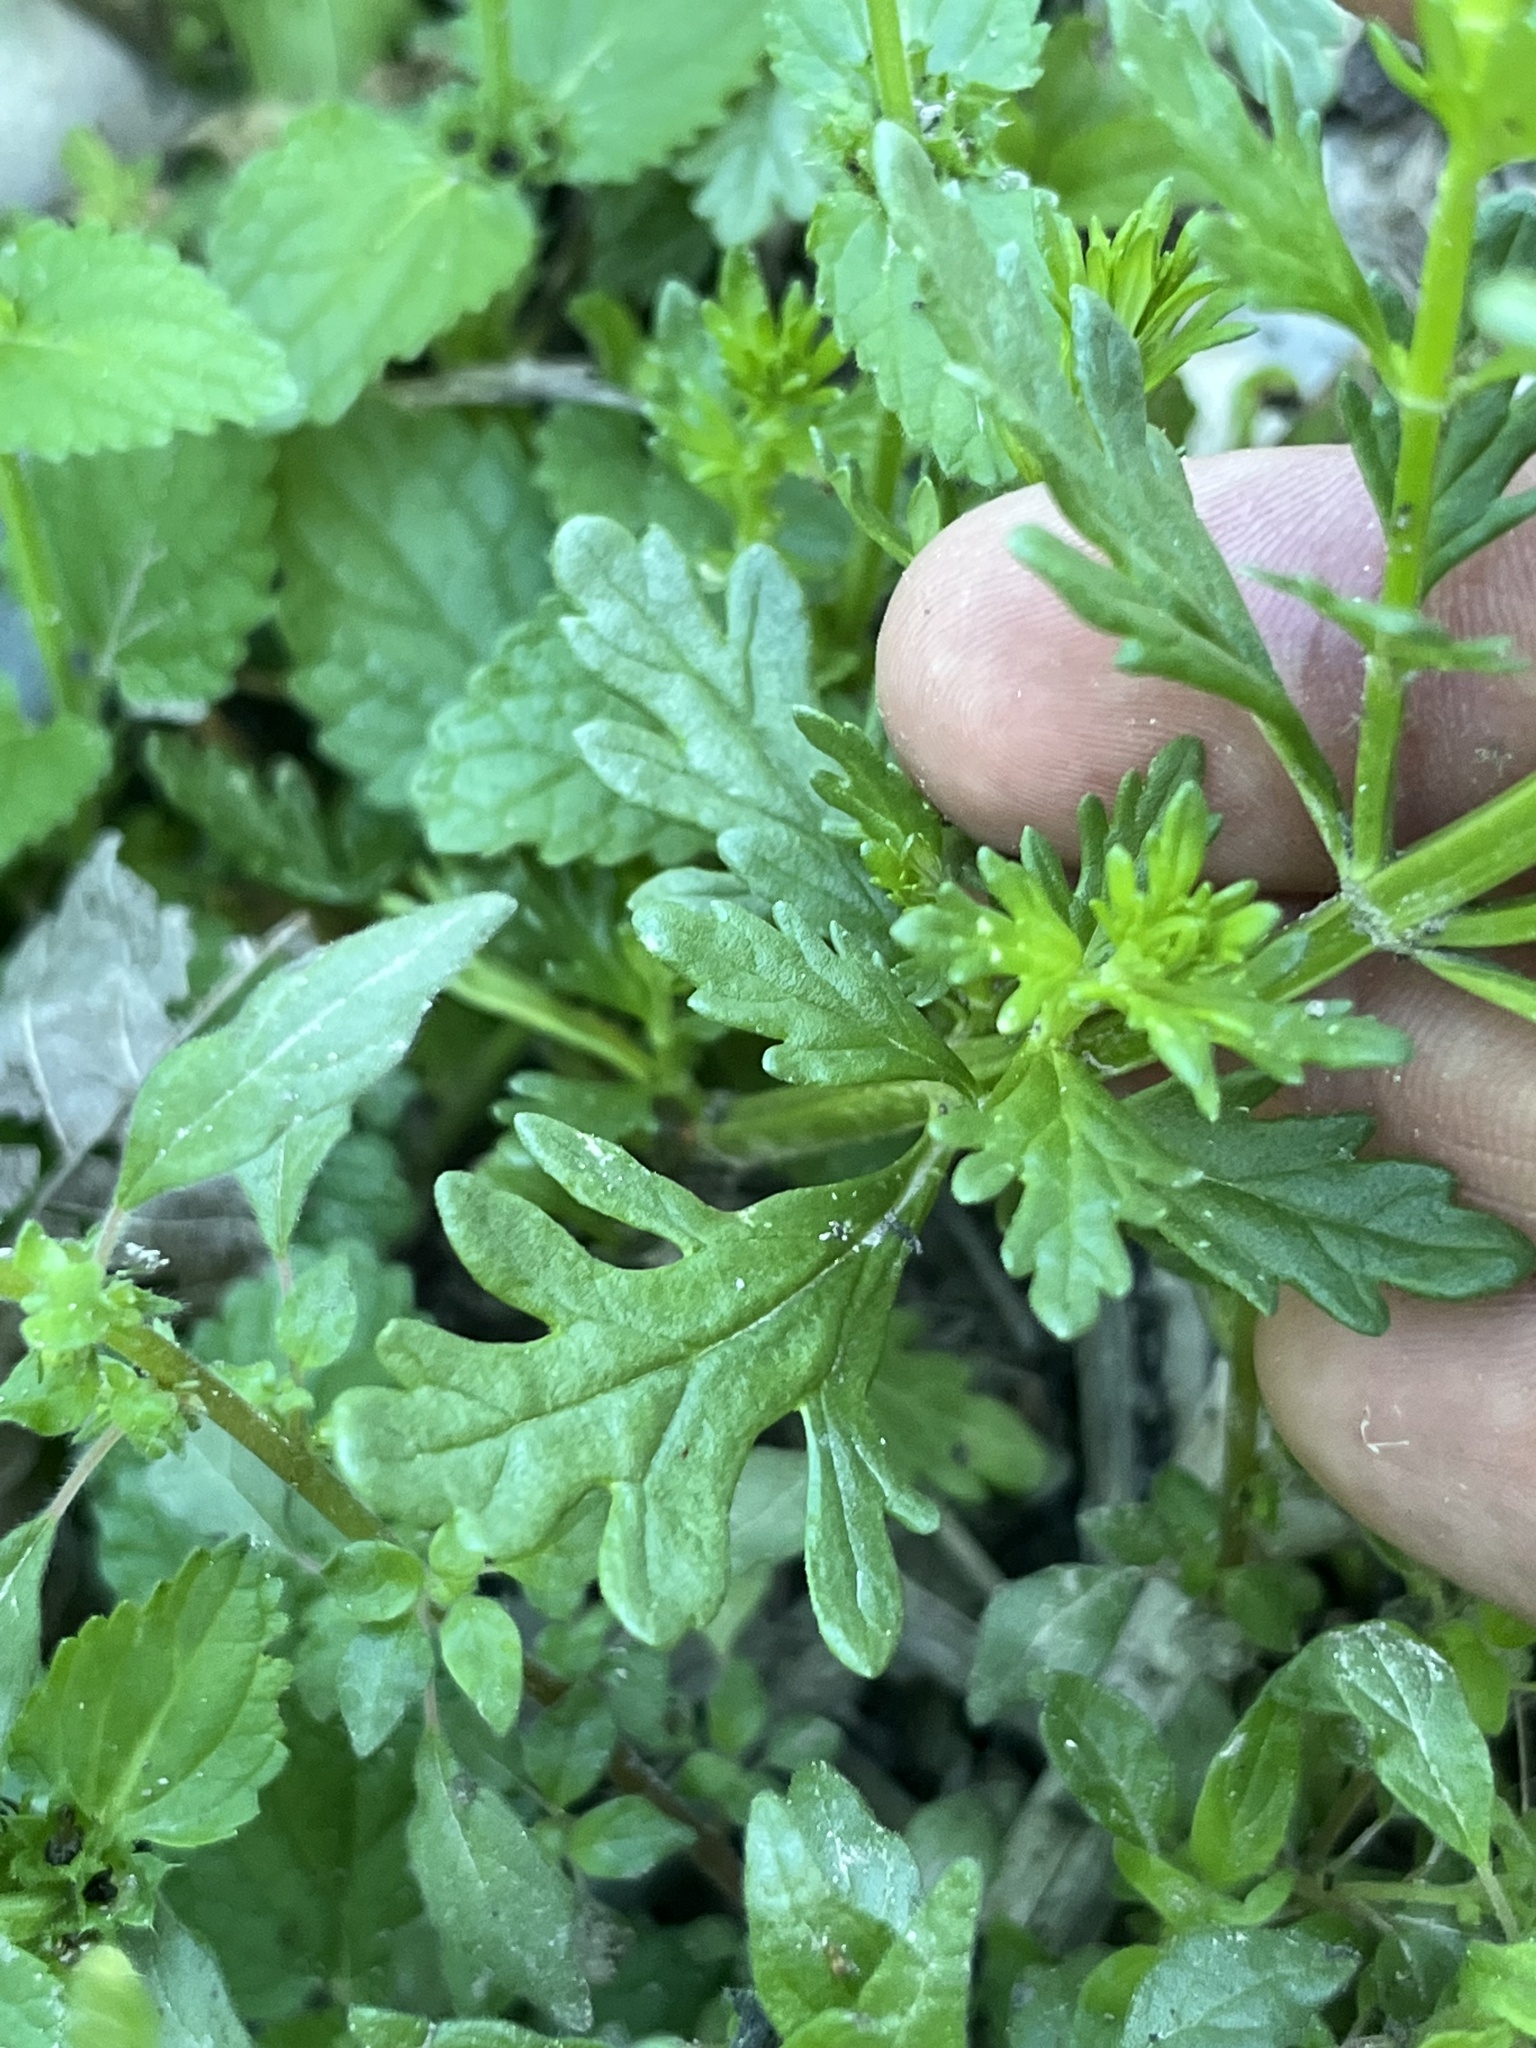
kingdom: Plantae
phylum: Tracheophyta
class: Magnoliopsida
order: Lamiales
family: Lamiaceae
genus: Teucrium
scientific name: Teucrium cubense
